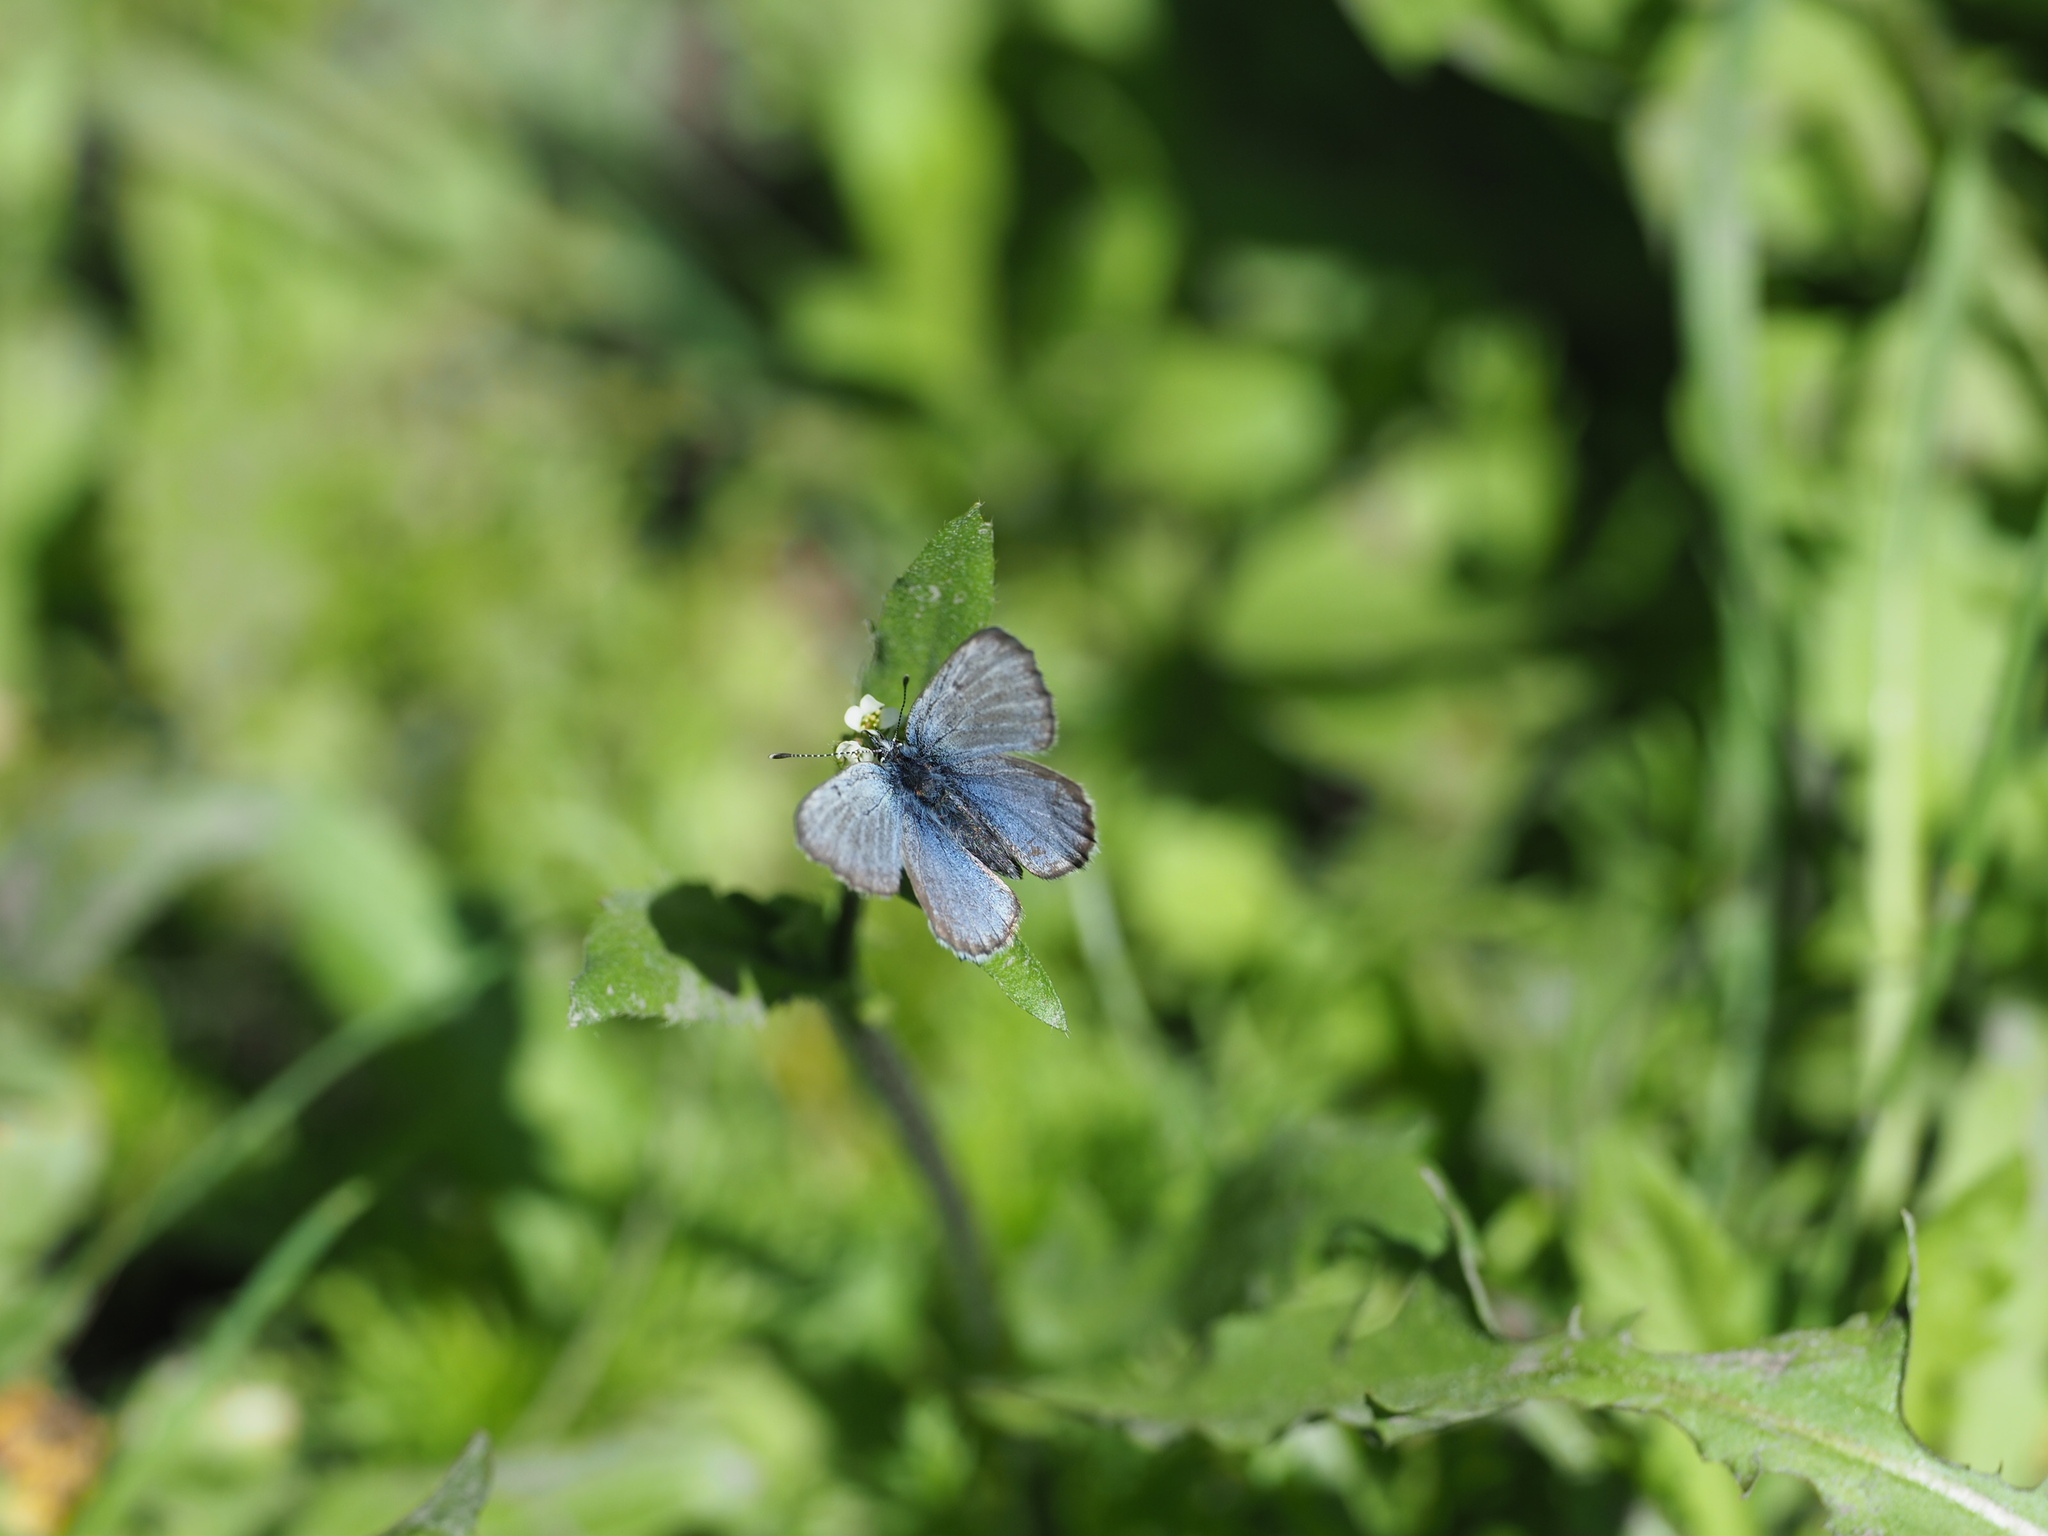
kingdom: Animalia
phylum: Arthropoda
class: Insecta
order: Lepidoptera
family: Lycaenidae
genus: Glaucopsyche
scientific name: Glaucopsyche lygdamus
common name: Silvery blue
